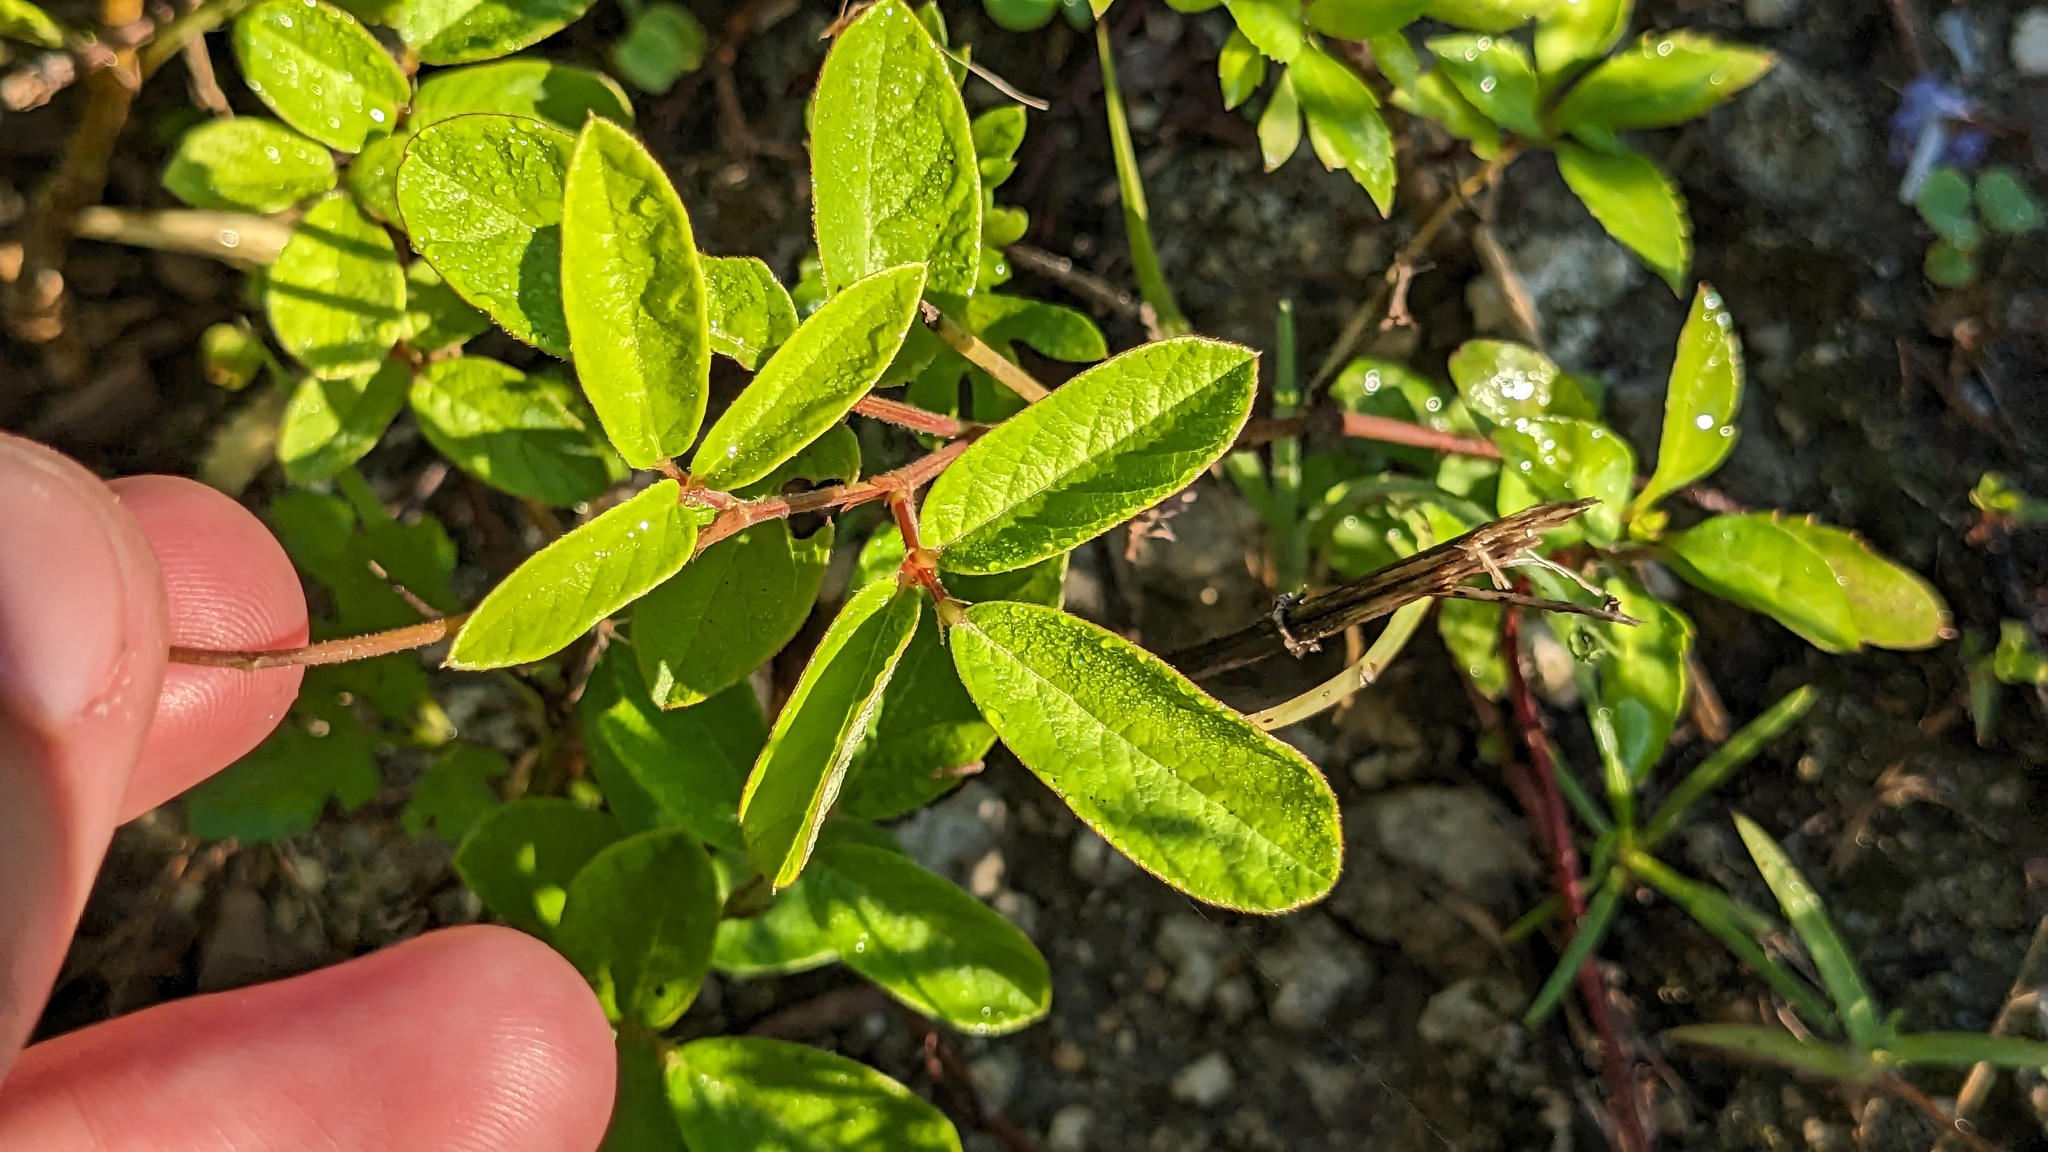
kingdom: Plantae
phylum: Tracheophyta
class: Magnoliopsida
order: Fabales
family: Fabaceae
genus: Desmodium
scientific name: Desmodium incanum
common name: Tickclover
